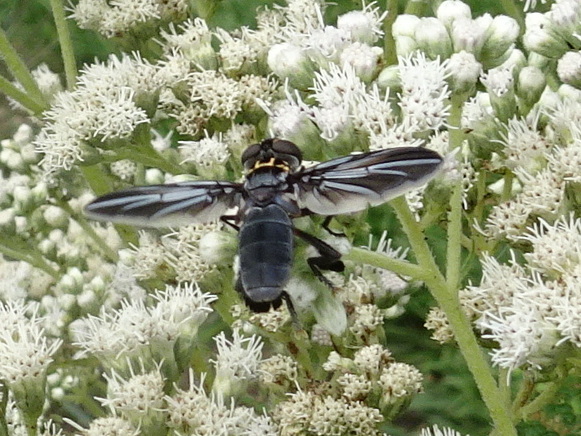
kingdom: Animalia
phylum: Arthropoda
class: Insecta
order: Diptera
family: Tachinidae
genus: Trichopoda
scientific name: Trichopoda lanipes
